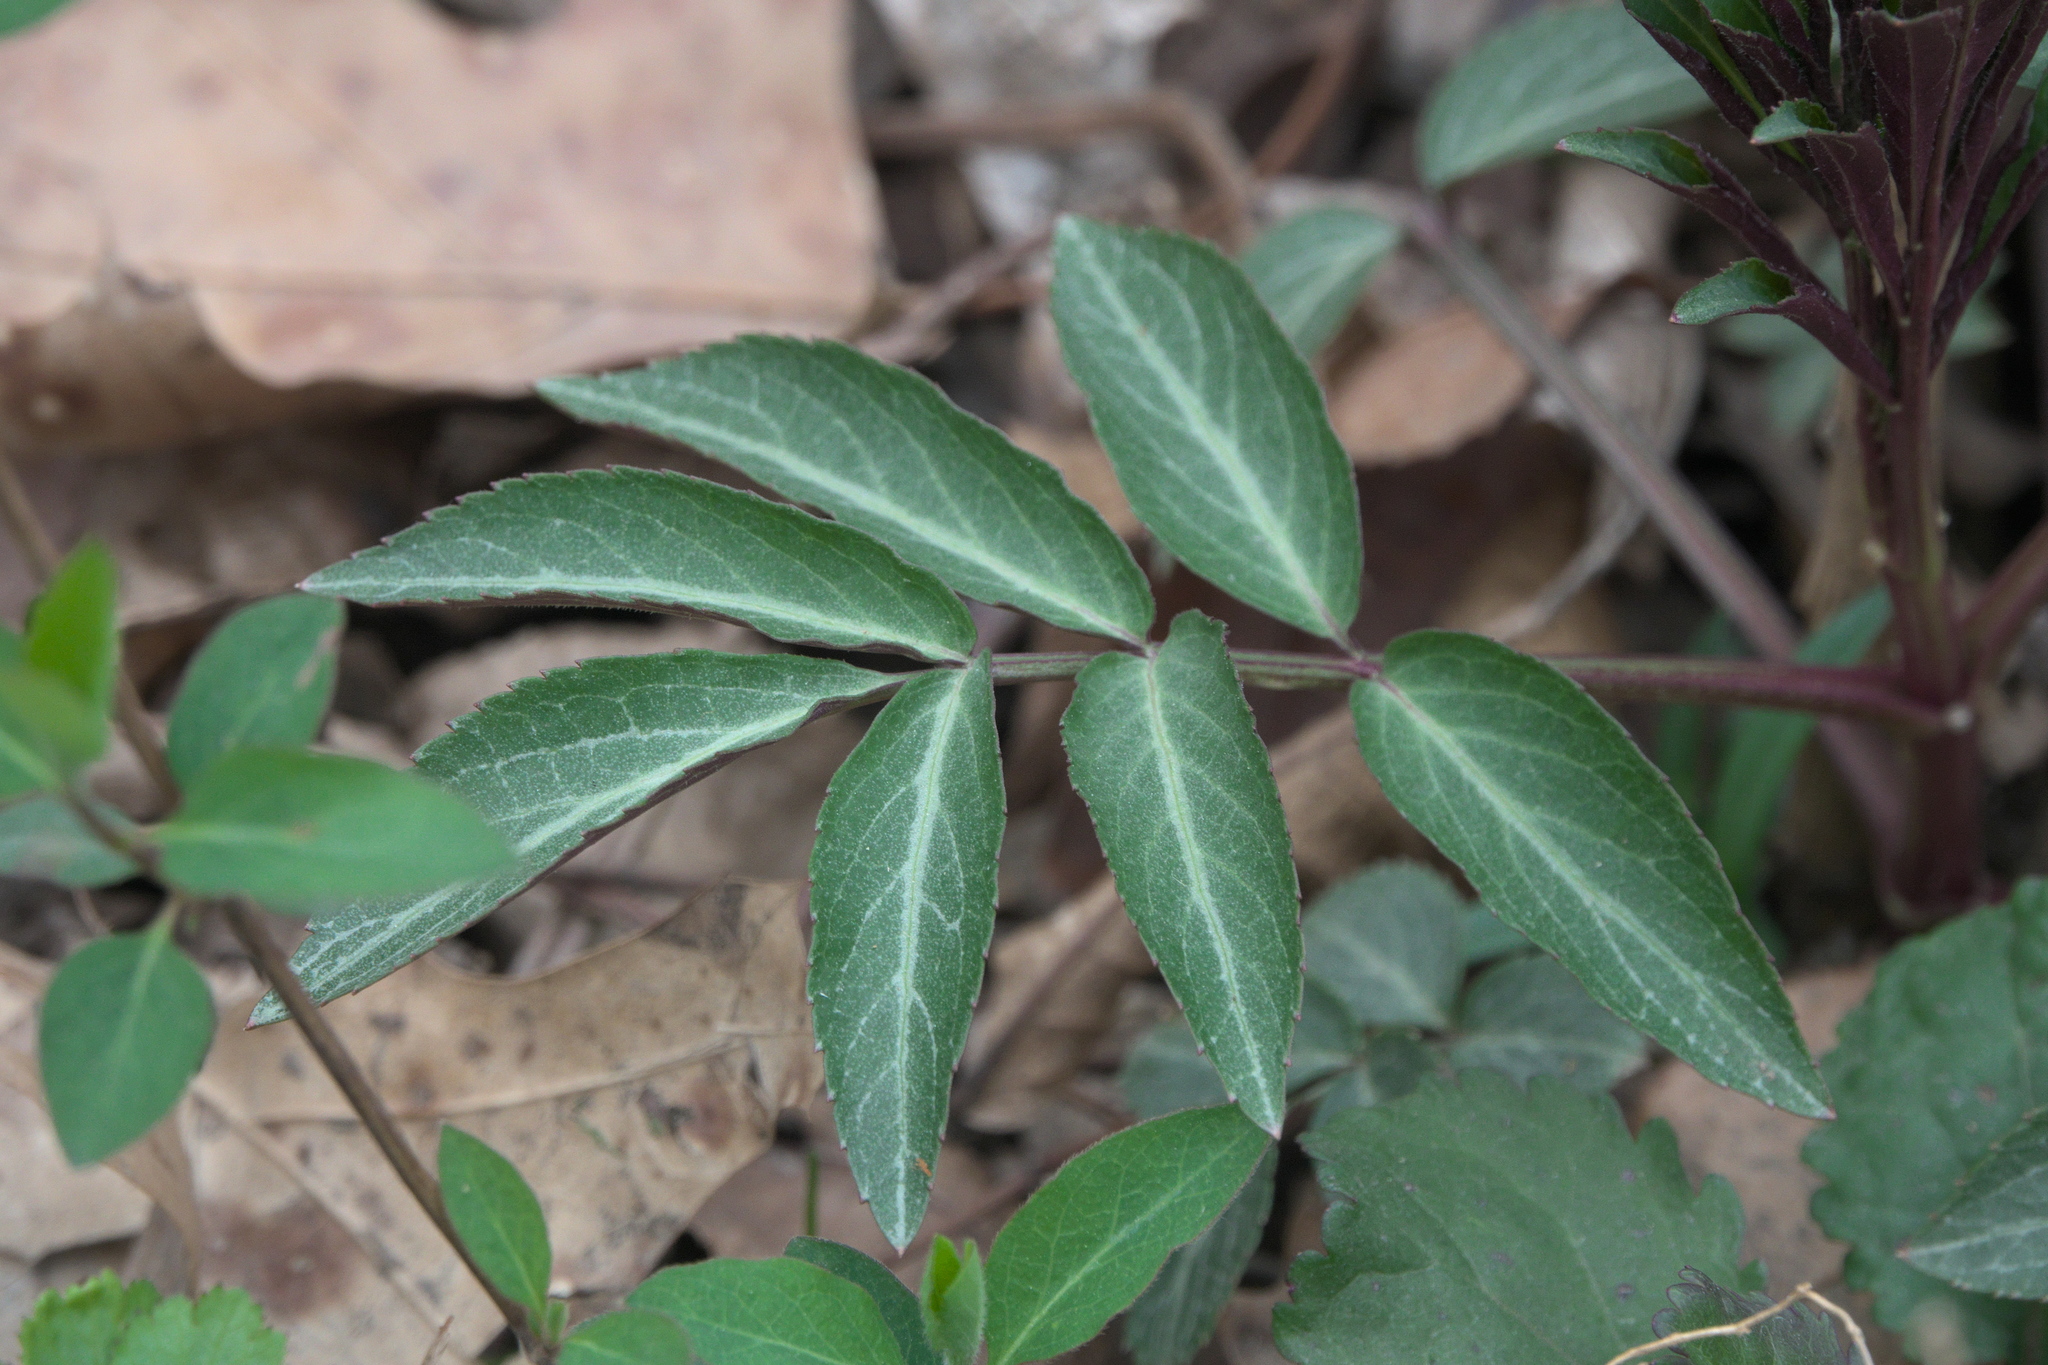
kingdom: Plantae
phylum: Tracheophyta
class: Magnoliopsida
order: Dipsacales
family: Viburnaceae
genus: Sambucus
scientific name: Sambucus canadensis
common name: American elder
